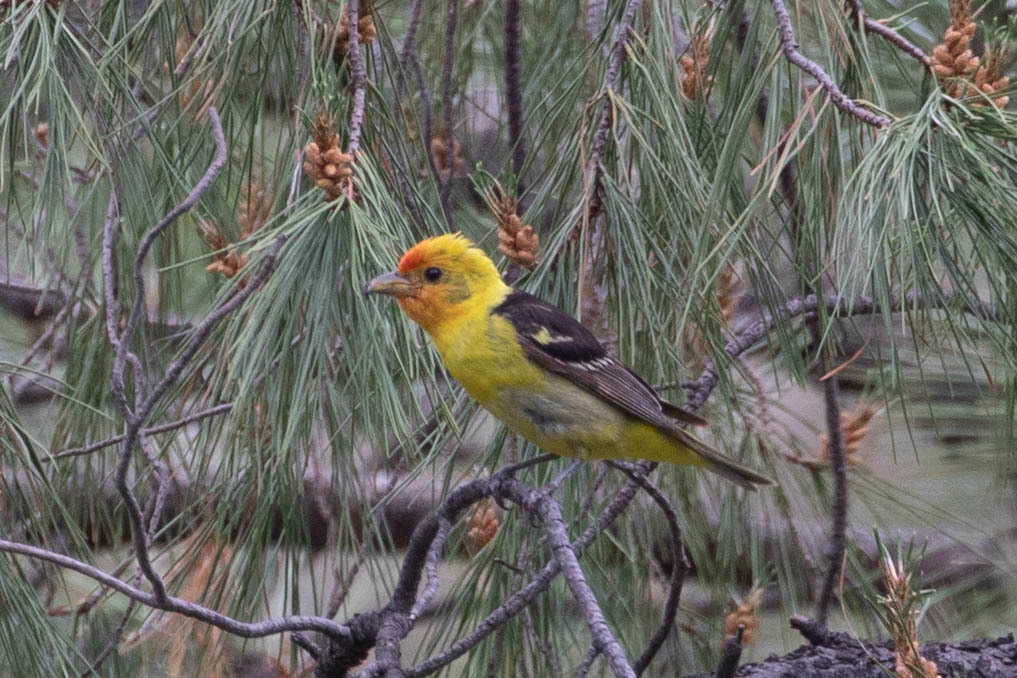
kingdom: Animalia
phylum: Chordata
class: Aves
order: Passeriformes
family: Cardinalidae
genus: Piranga
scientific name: Piranga ludoviciana
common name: Western tanager
